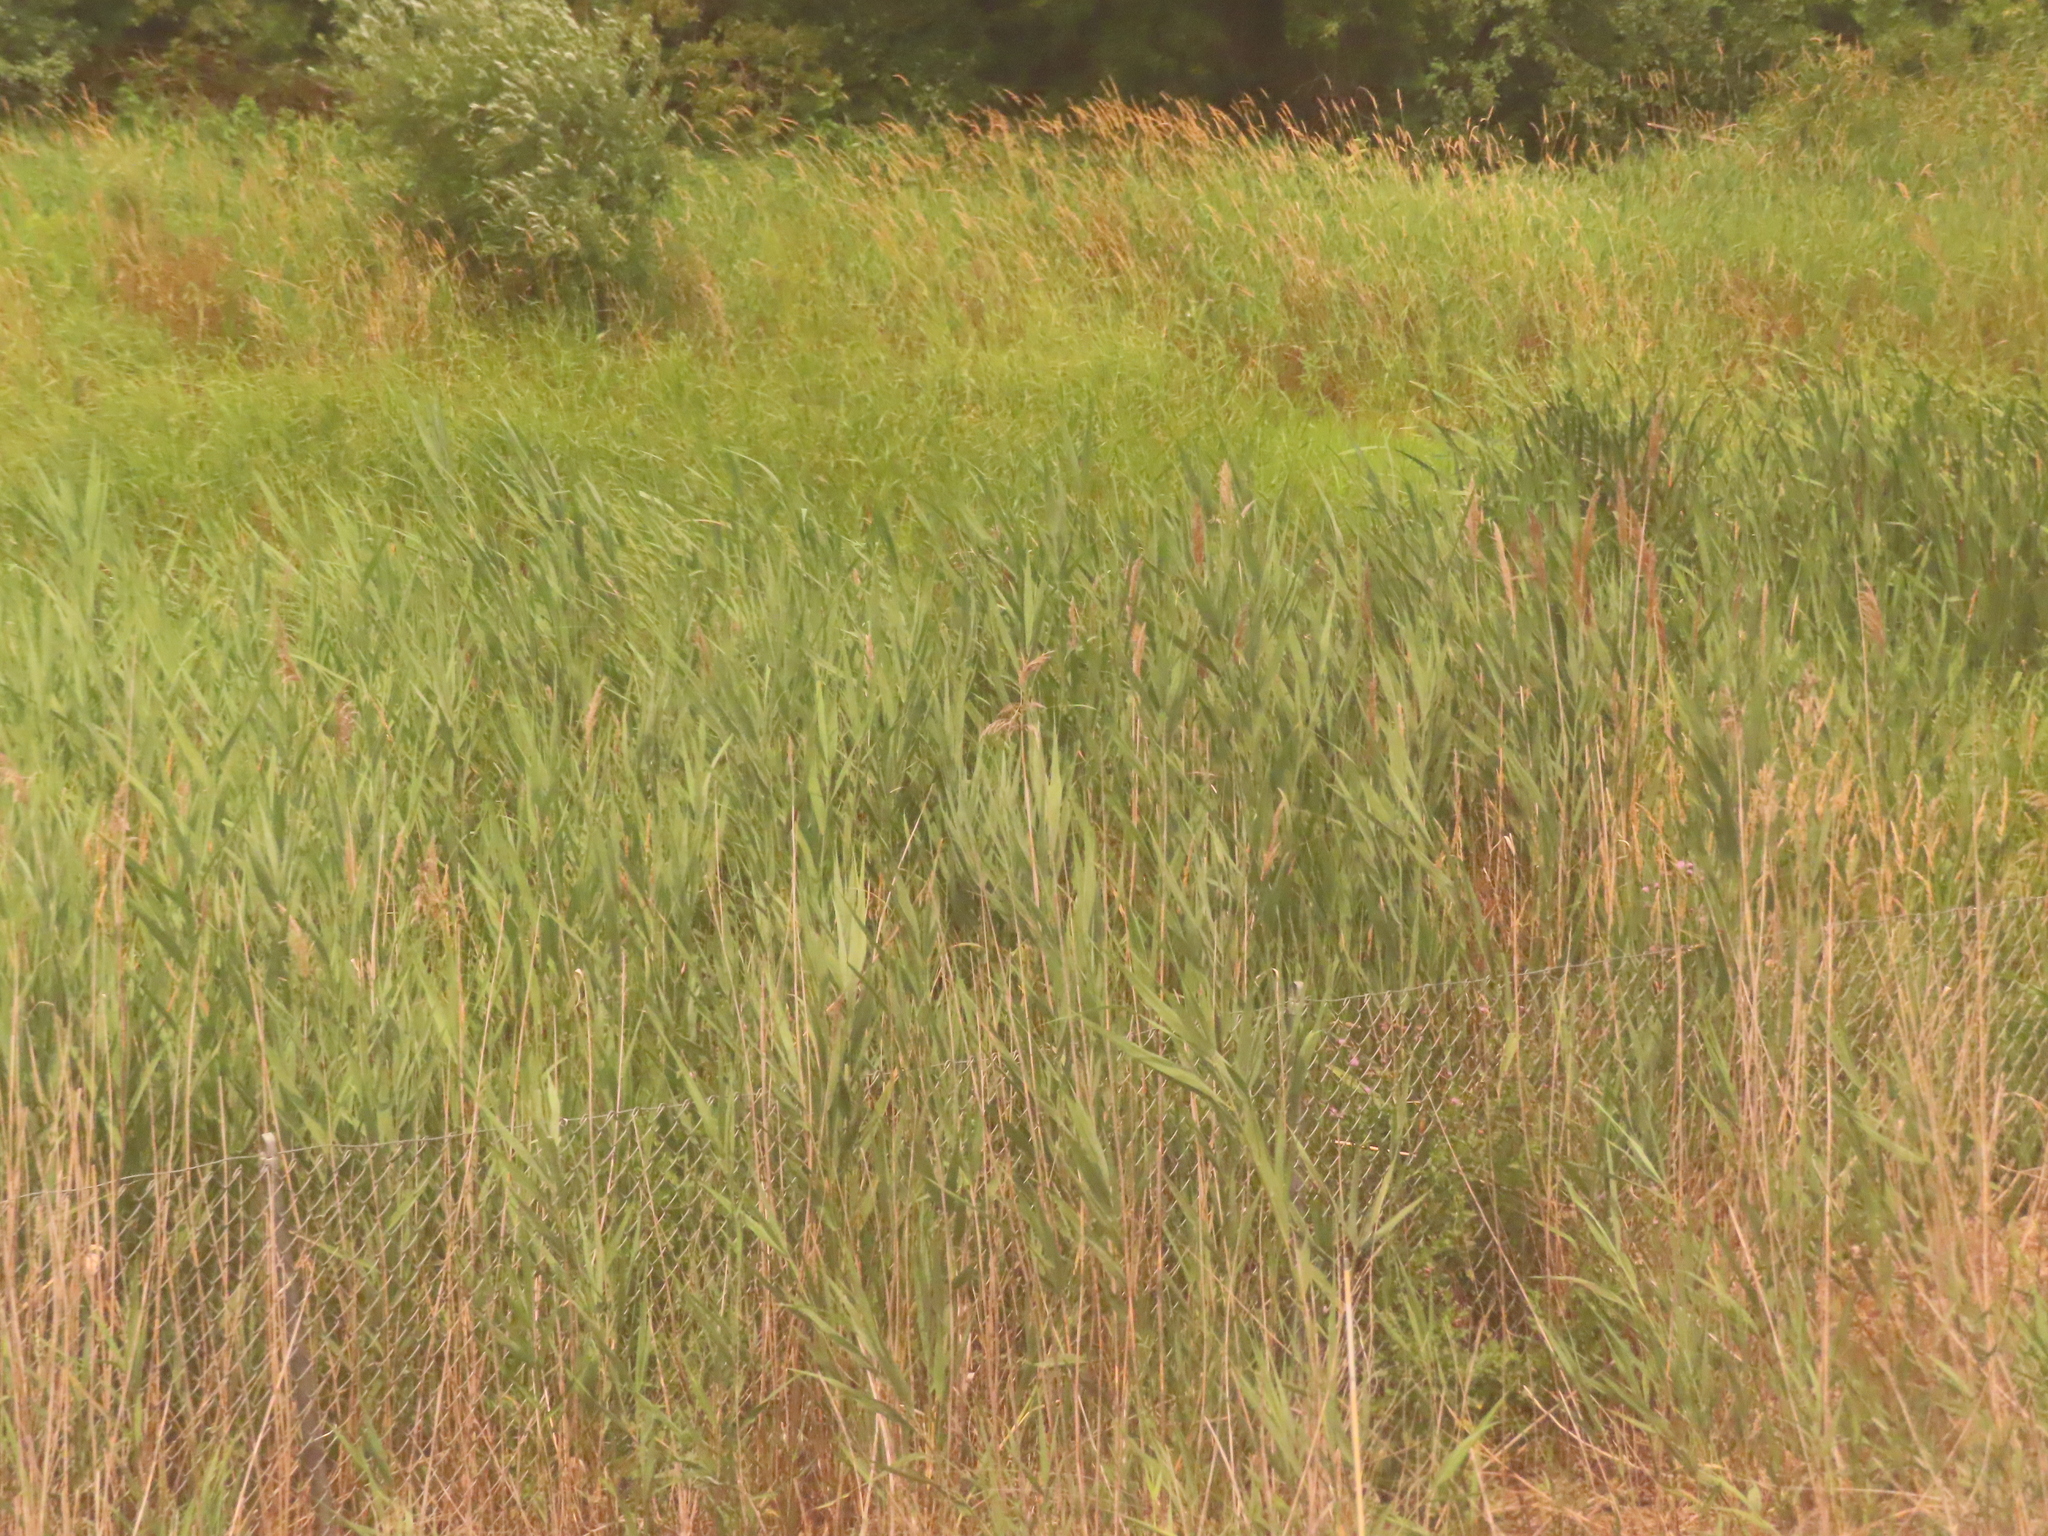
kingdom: Plantae
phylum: Tracheophyta
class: Liliopsida
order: Poales
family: Poaceae
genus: Phragmites
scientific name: Phragmites australis
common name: Common reed
